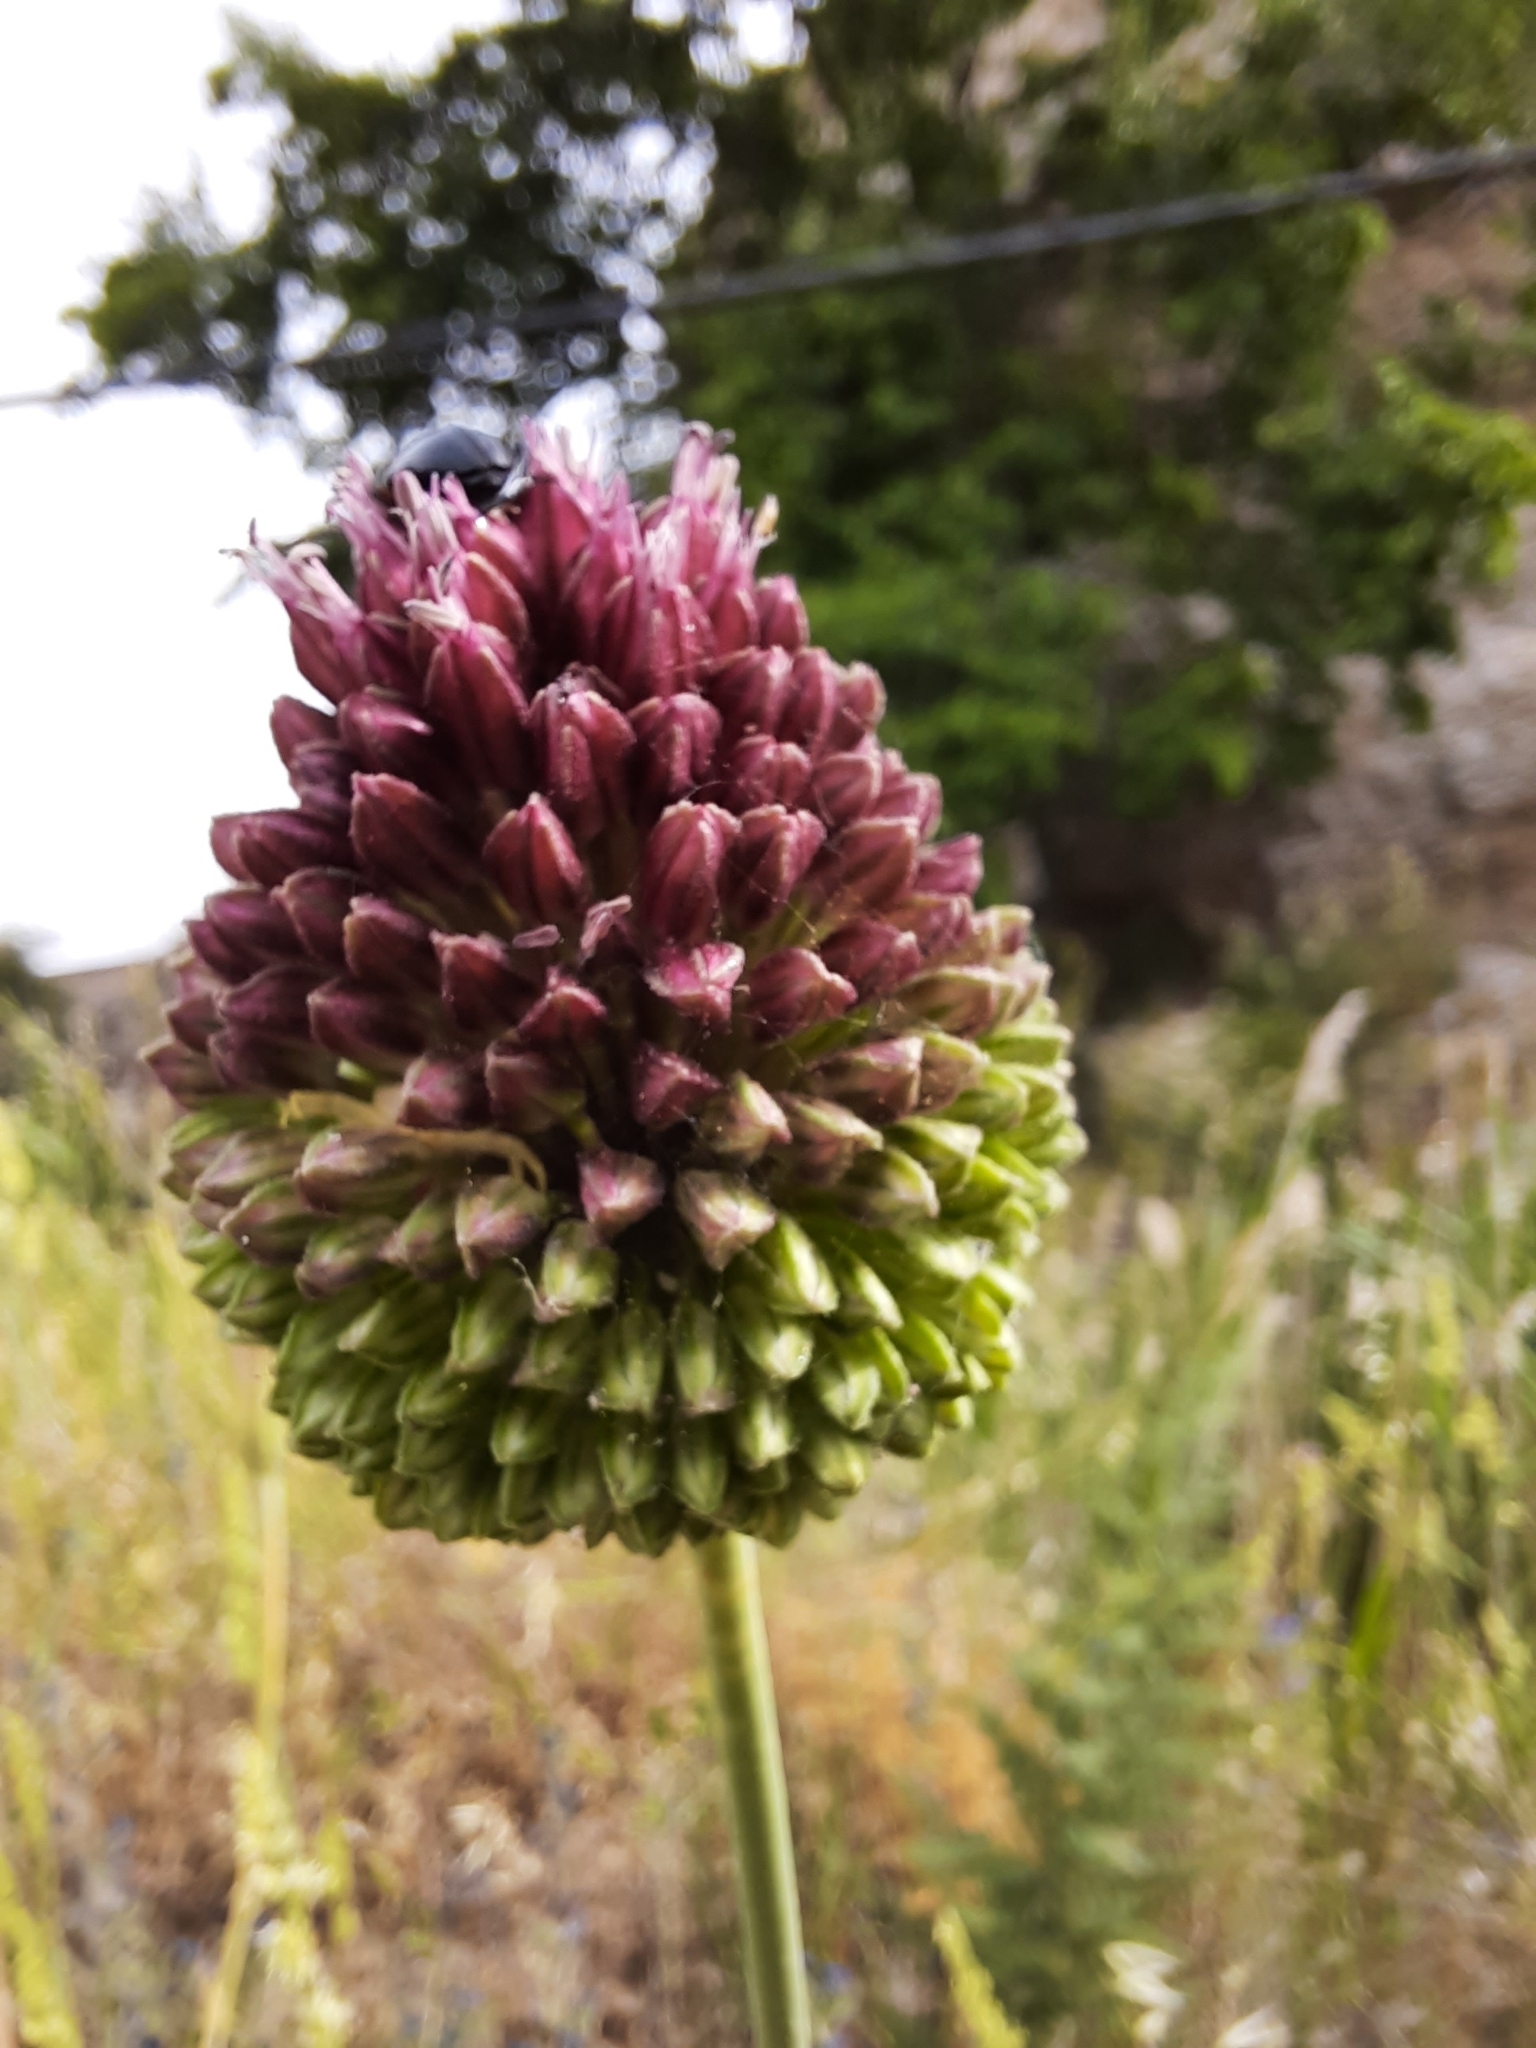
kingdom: Plantae
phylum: Tracheophyta
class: Liliopsida
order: Asparagales
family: Amaryllidaceae
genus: Allium
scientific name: Allium sphaerocephalon
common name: Round-headed leek
